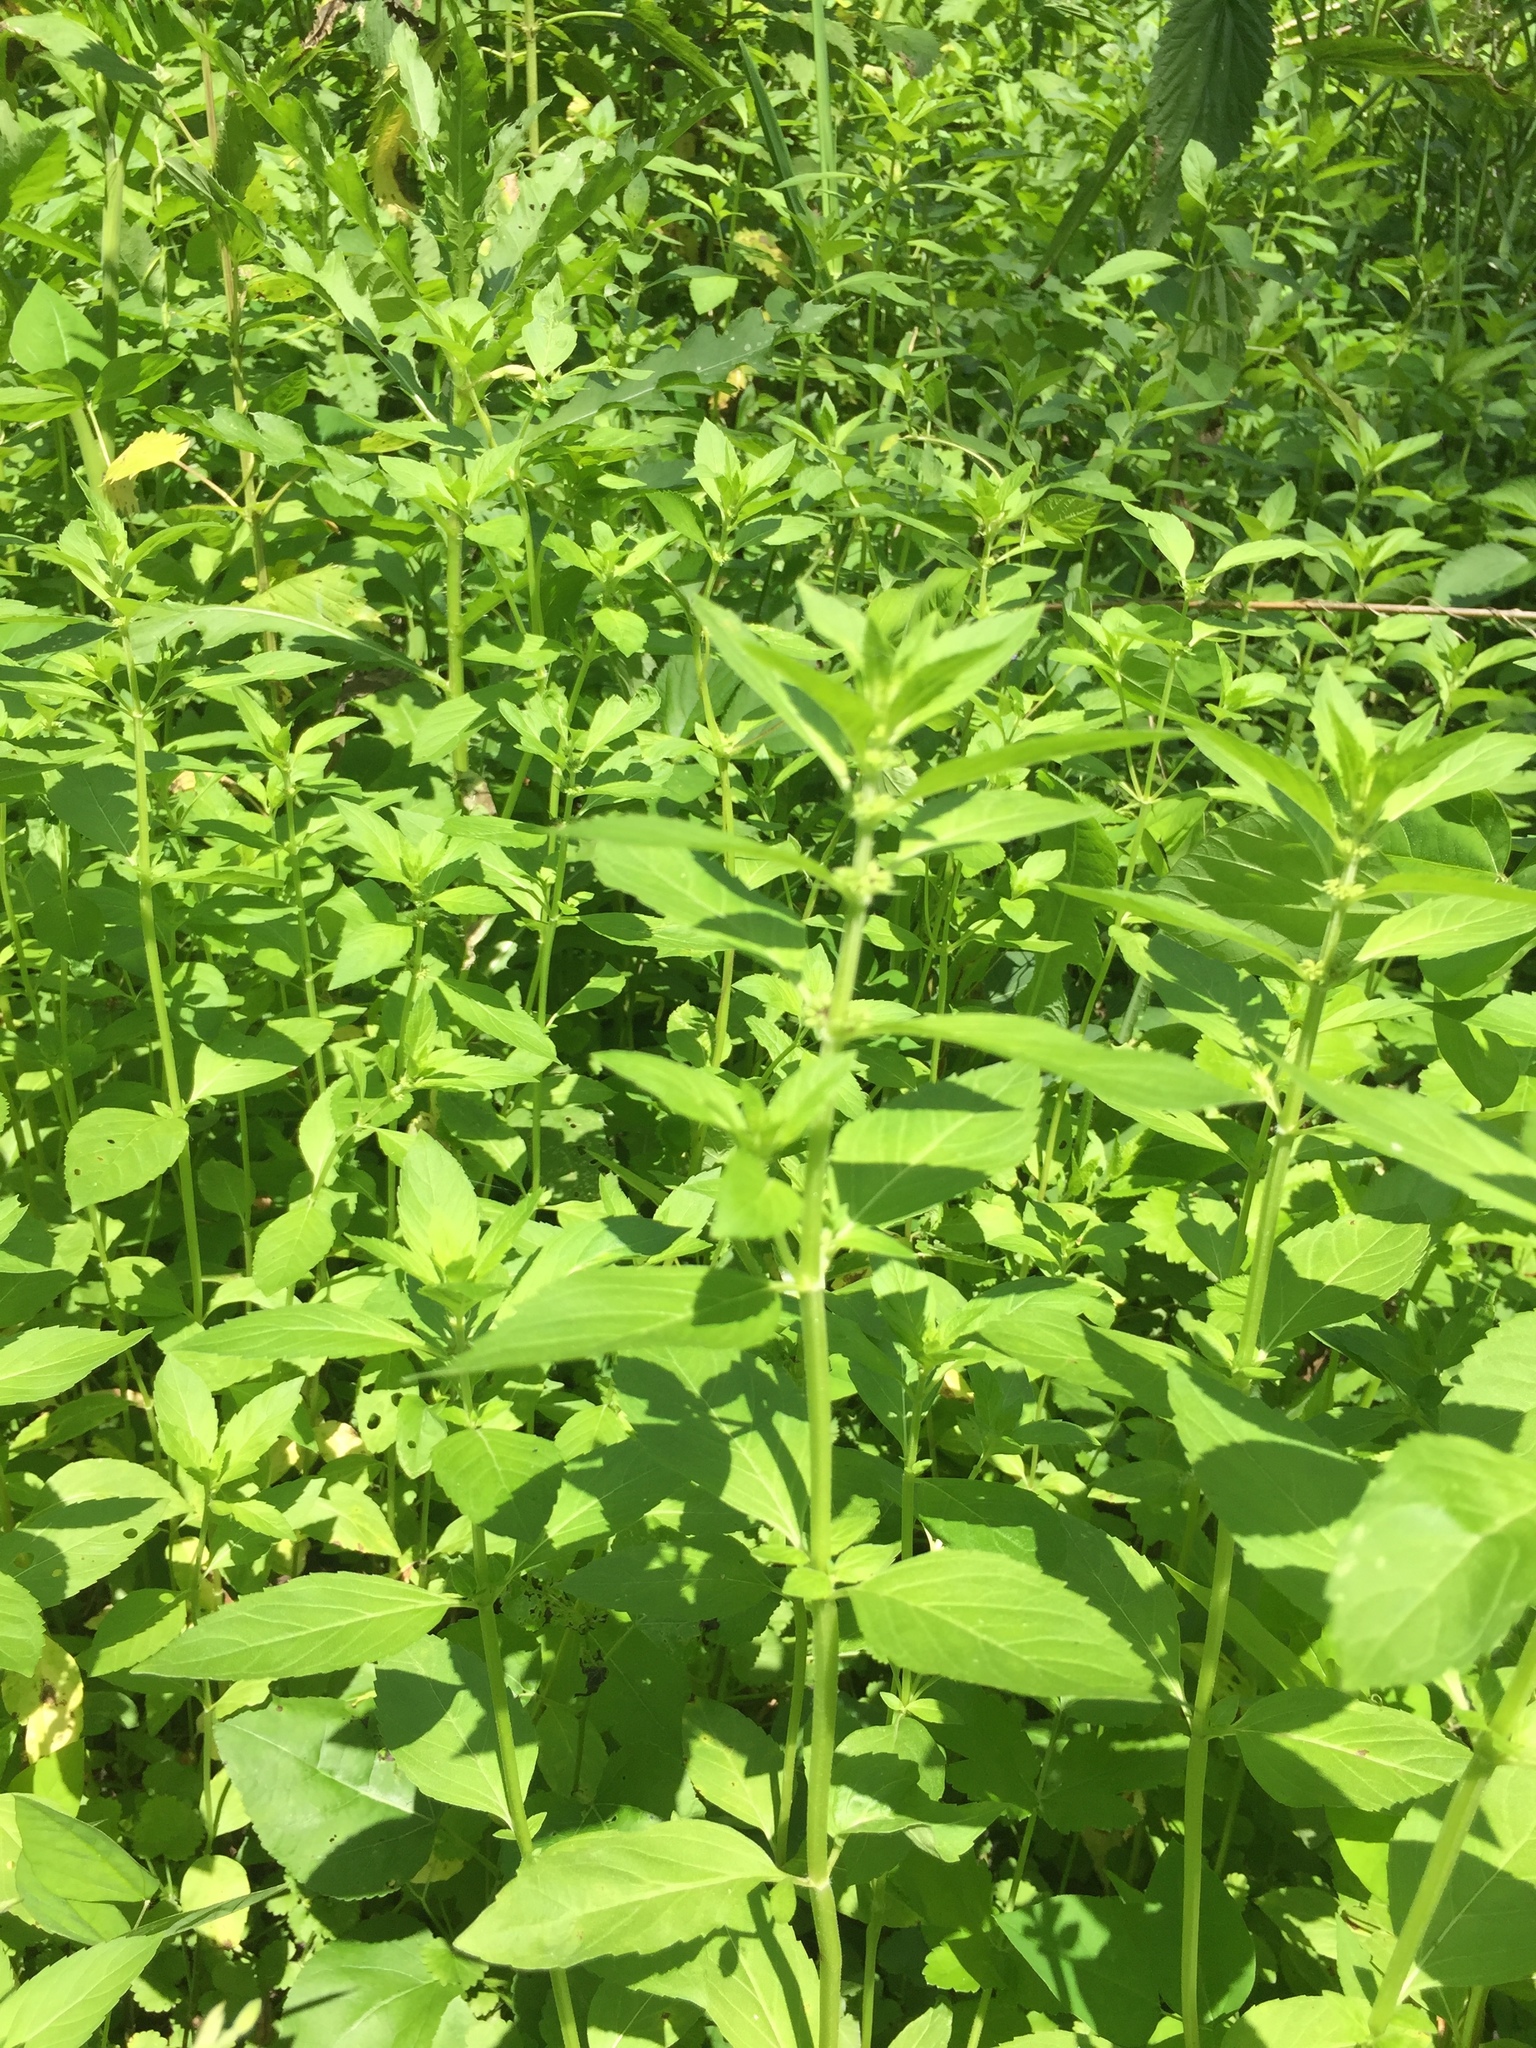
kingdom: Plantae
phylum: Tracheophyta
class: Magnoliopsida
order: Lamiales
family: Lamiaceae
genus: Mentha
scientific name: Mentha canadensis
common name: American corn mint
